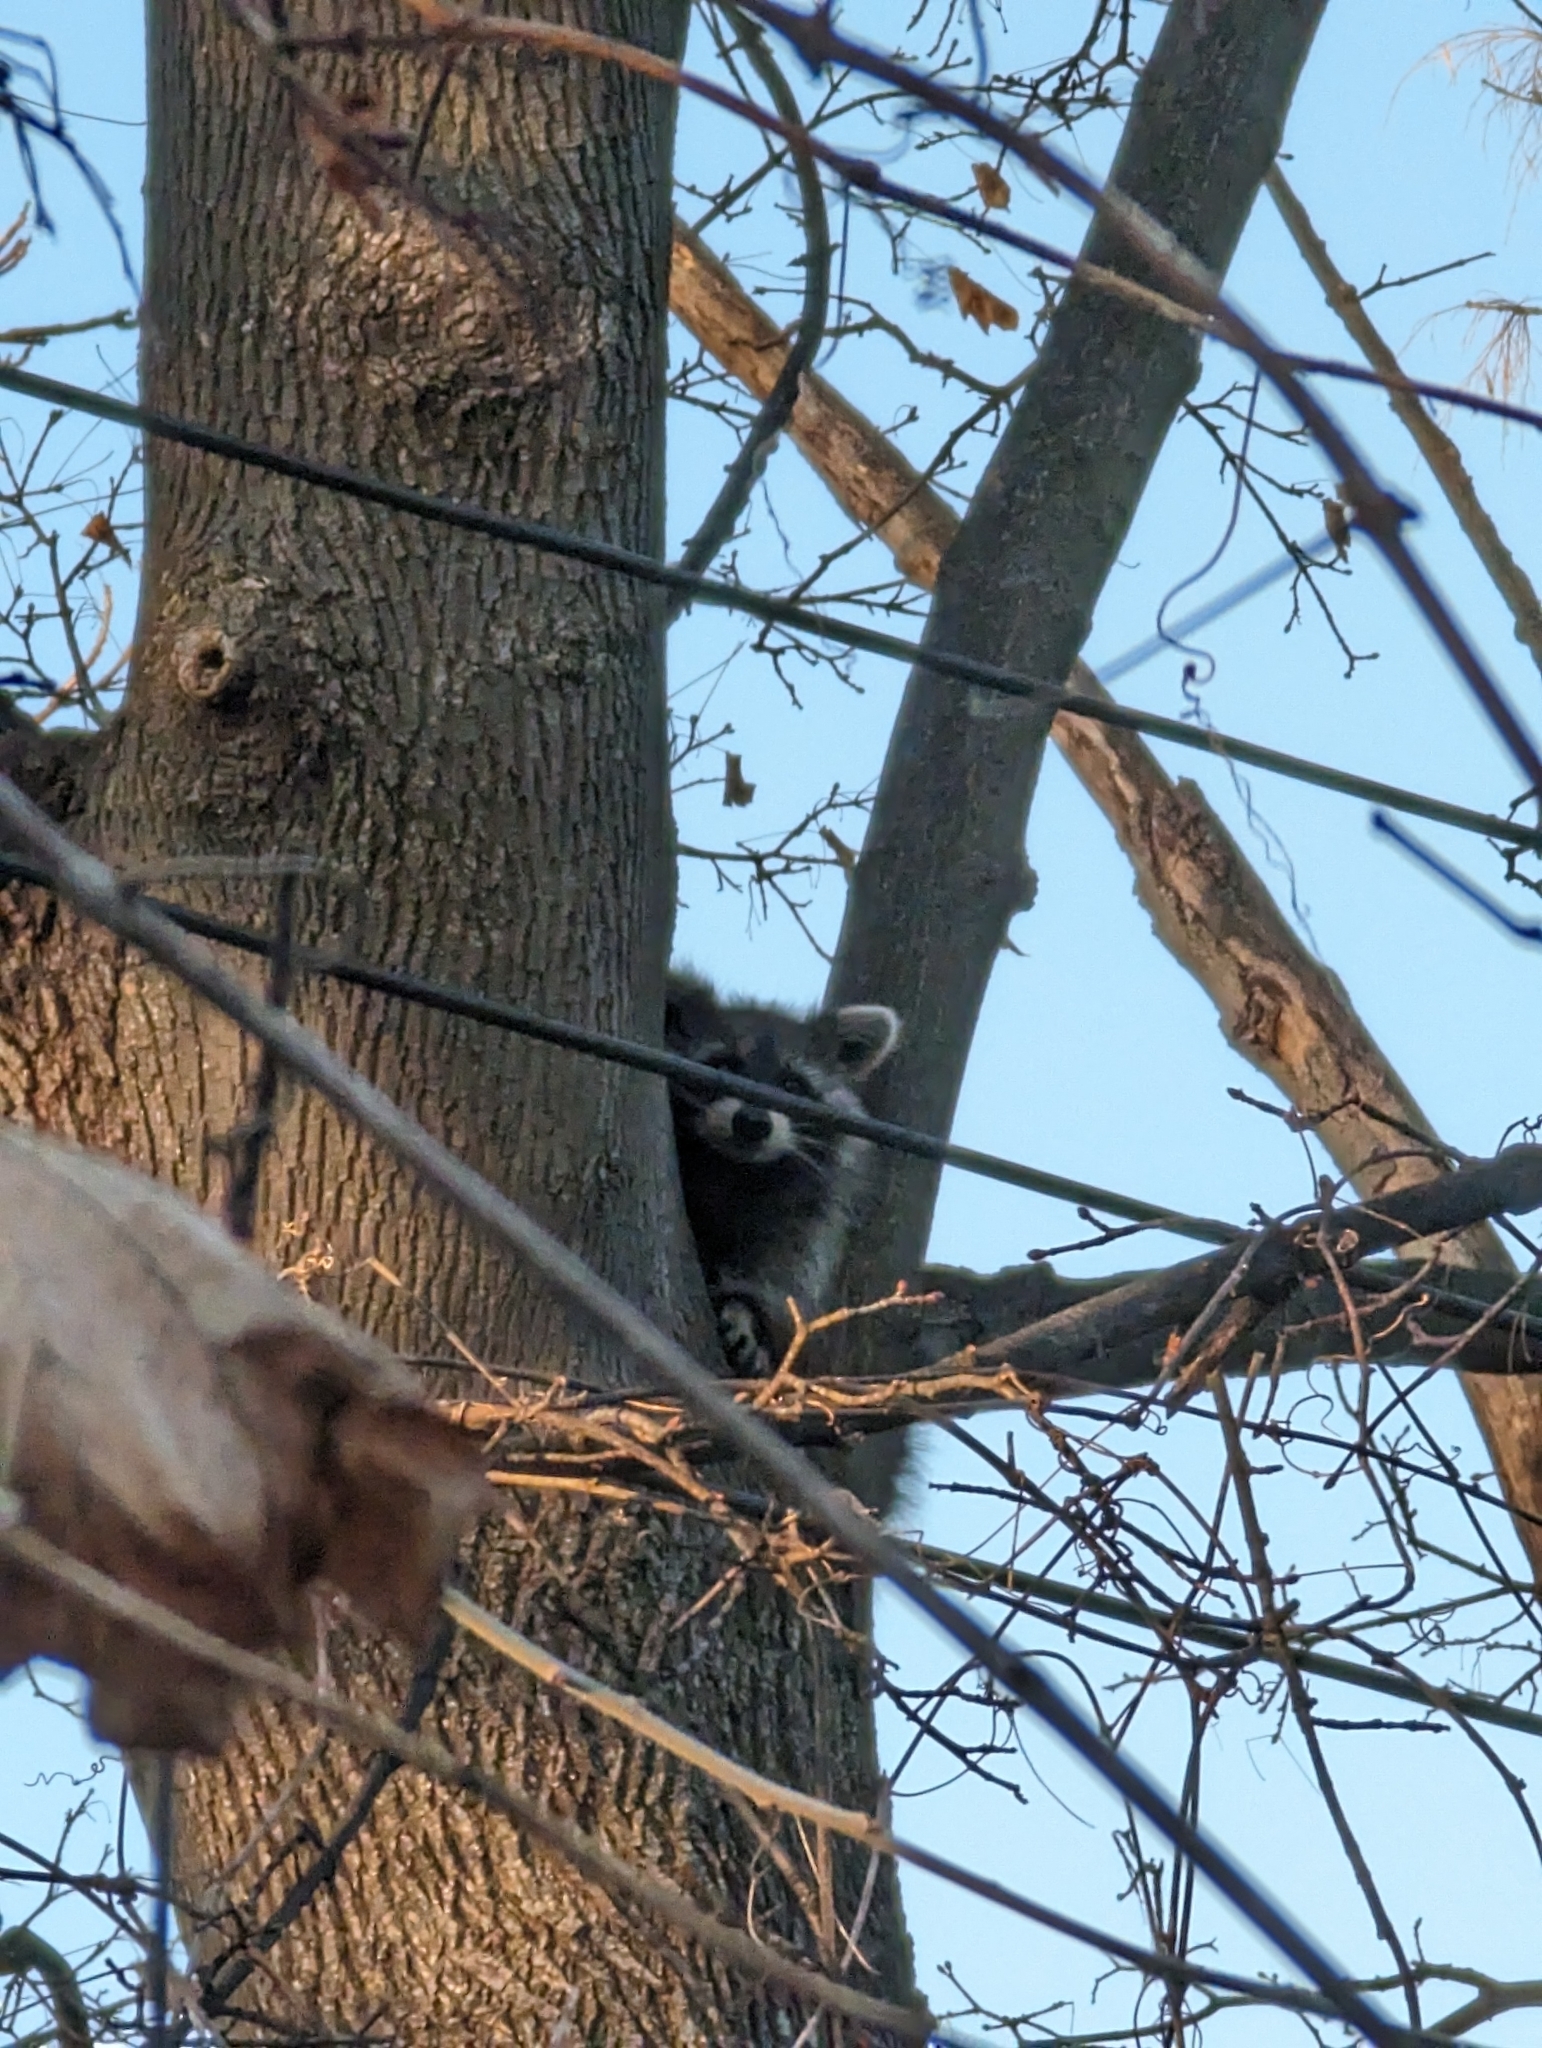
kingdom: Animalia
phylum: Chordata
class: Mammalia
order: Carnivora
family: Procyonidae
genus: Procyon
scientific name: Procyon lotor
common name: Raccoon
